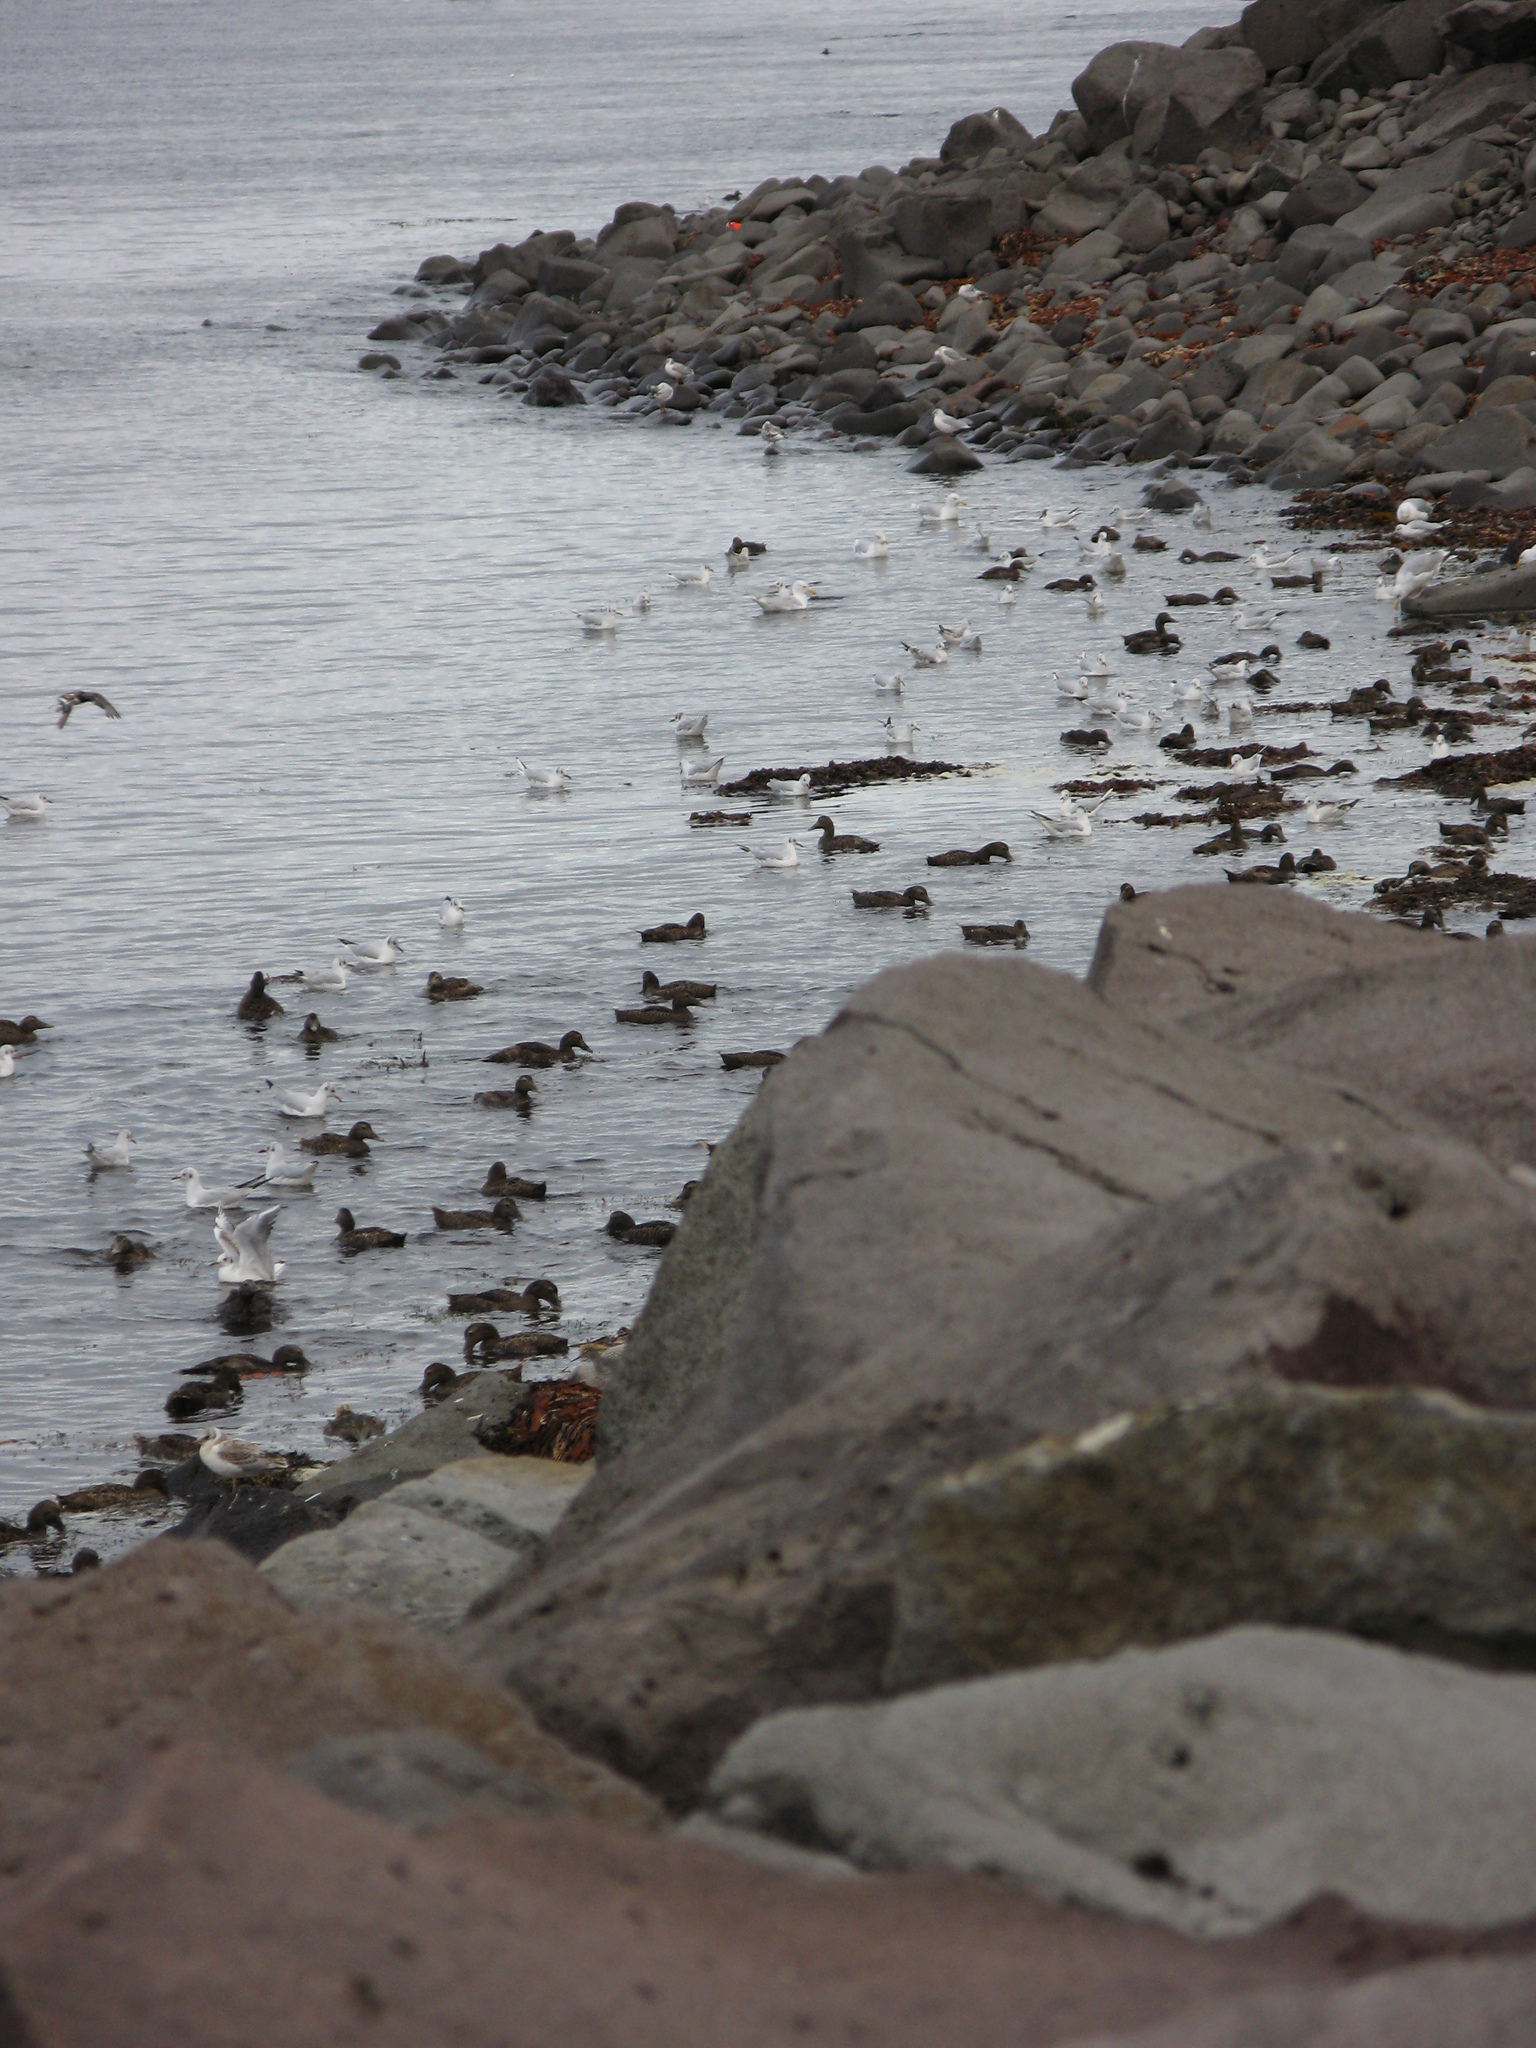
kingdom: Animalia
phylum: Chordata
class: Aves
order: Anseriformes
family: Anatidae
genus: Somateria
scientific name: Somateria mollissima
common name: Common eider
